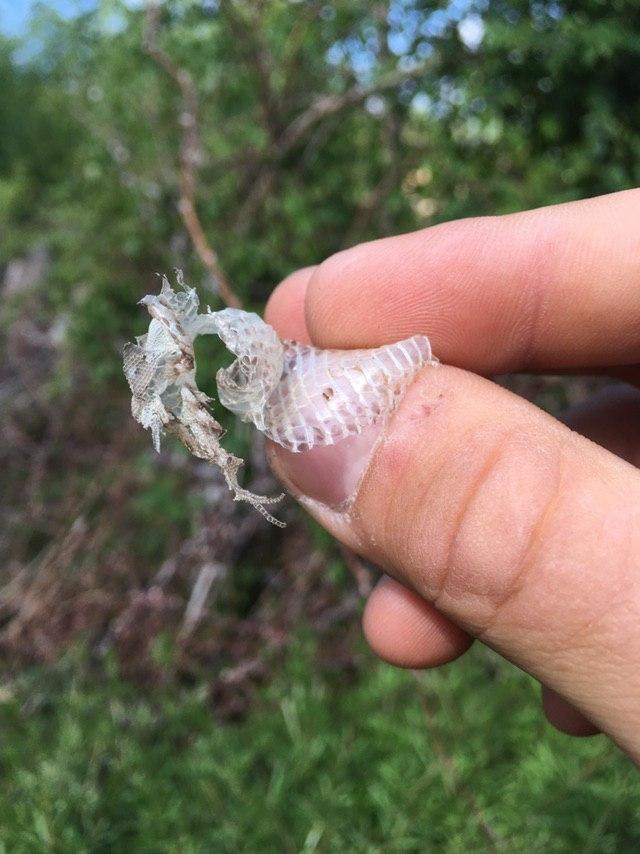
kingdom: Animalia
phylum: Chordata
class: Squamata
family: Lacertidae
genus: Lacerta
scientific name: Lacerta agilis
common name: Sand lizard
